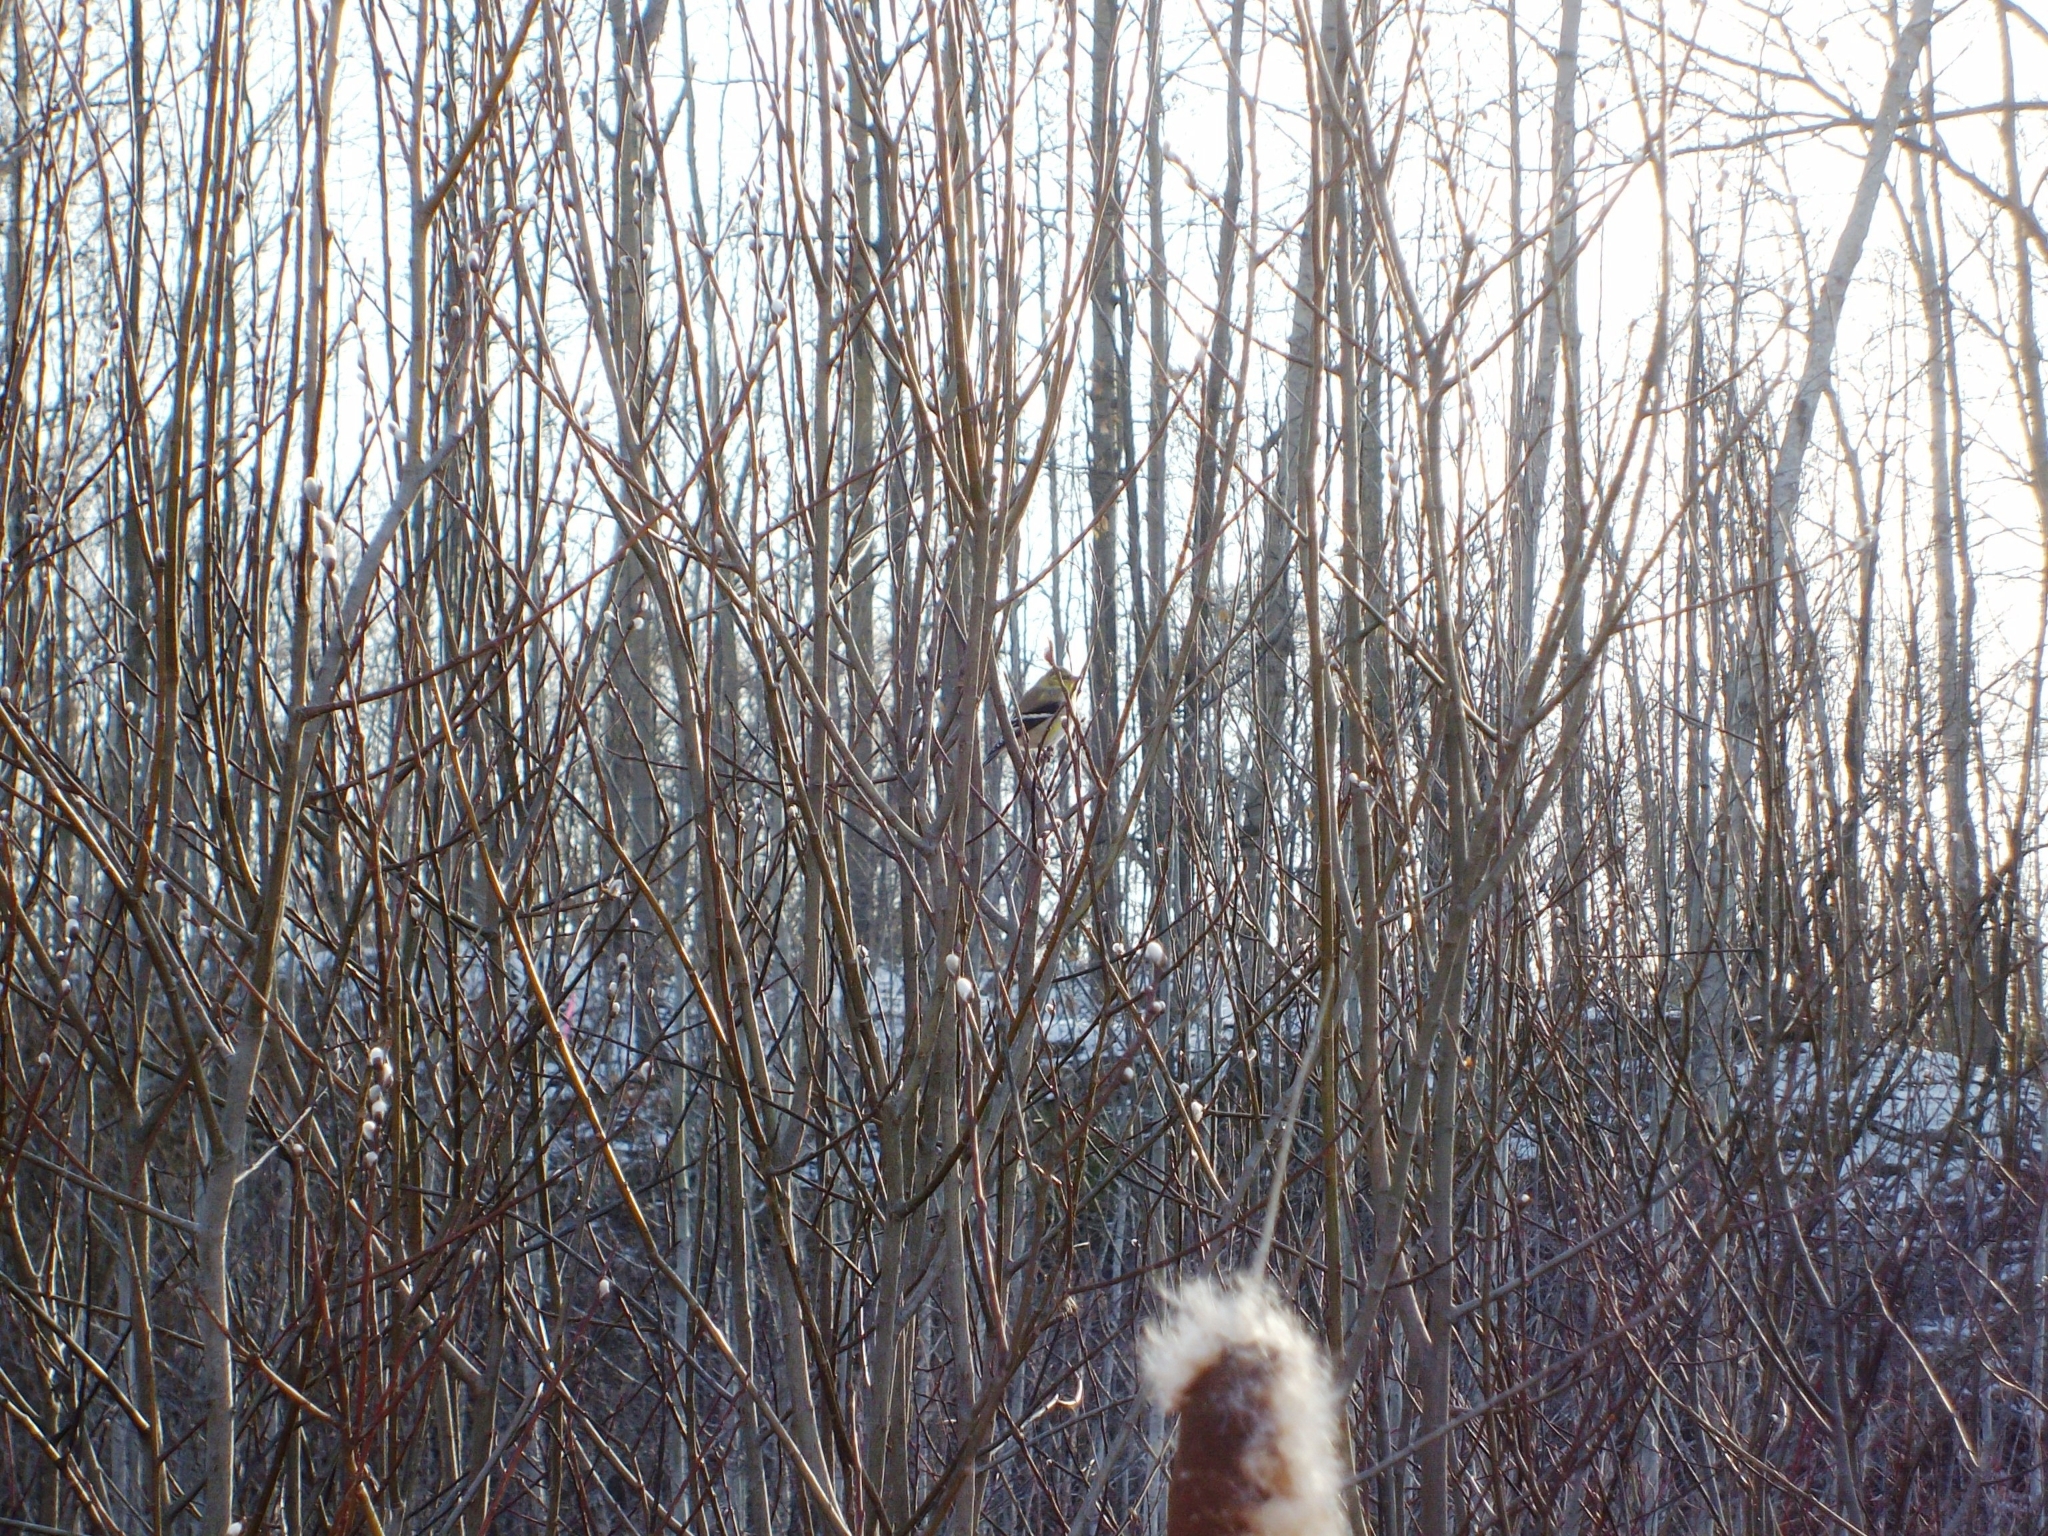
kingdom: Animalia
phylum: Chordata
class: Aves
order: Passeriformes
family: Fringillidae
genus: Spinus
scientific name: Spinus tristis
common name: American goldfinch
